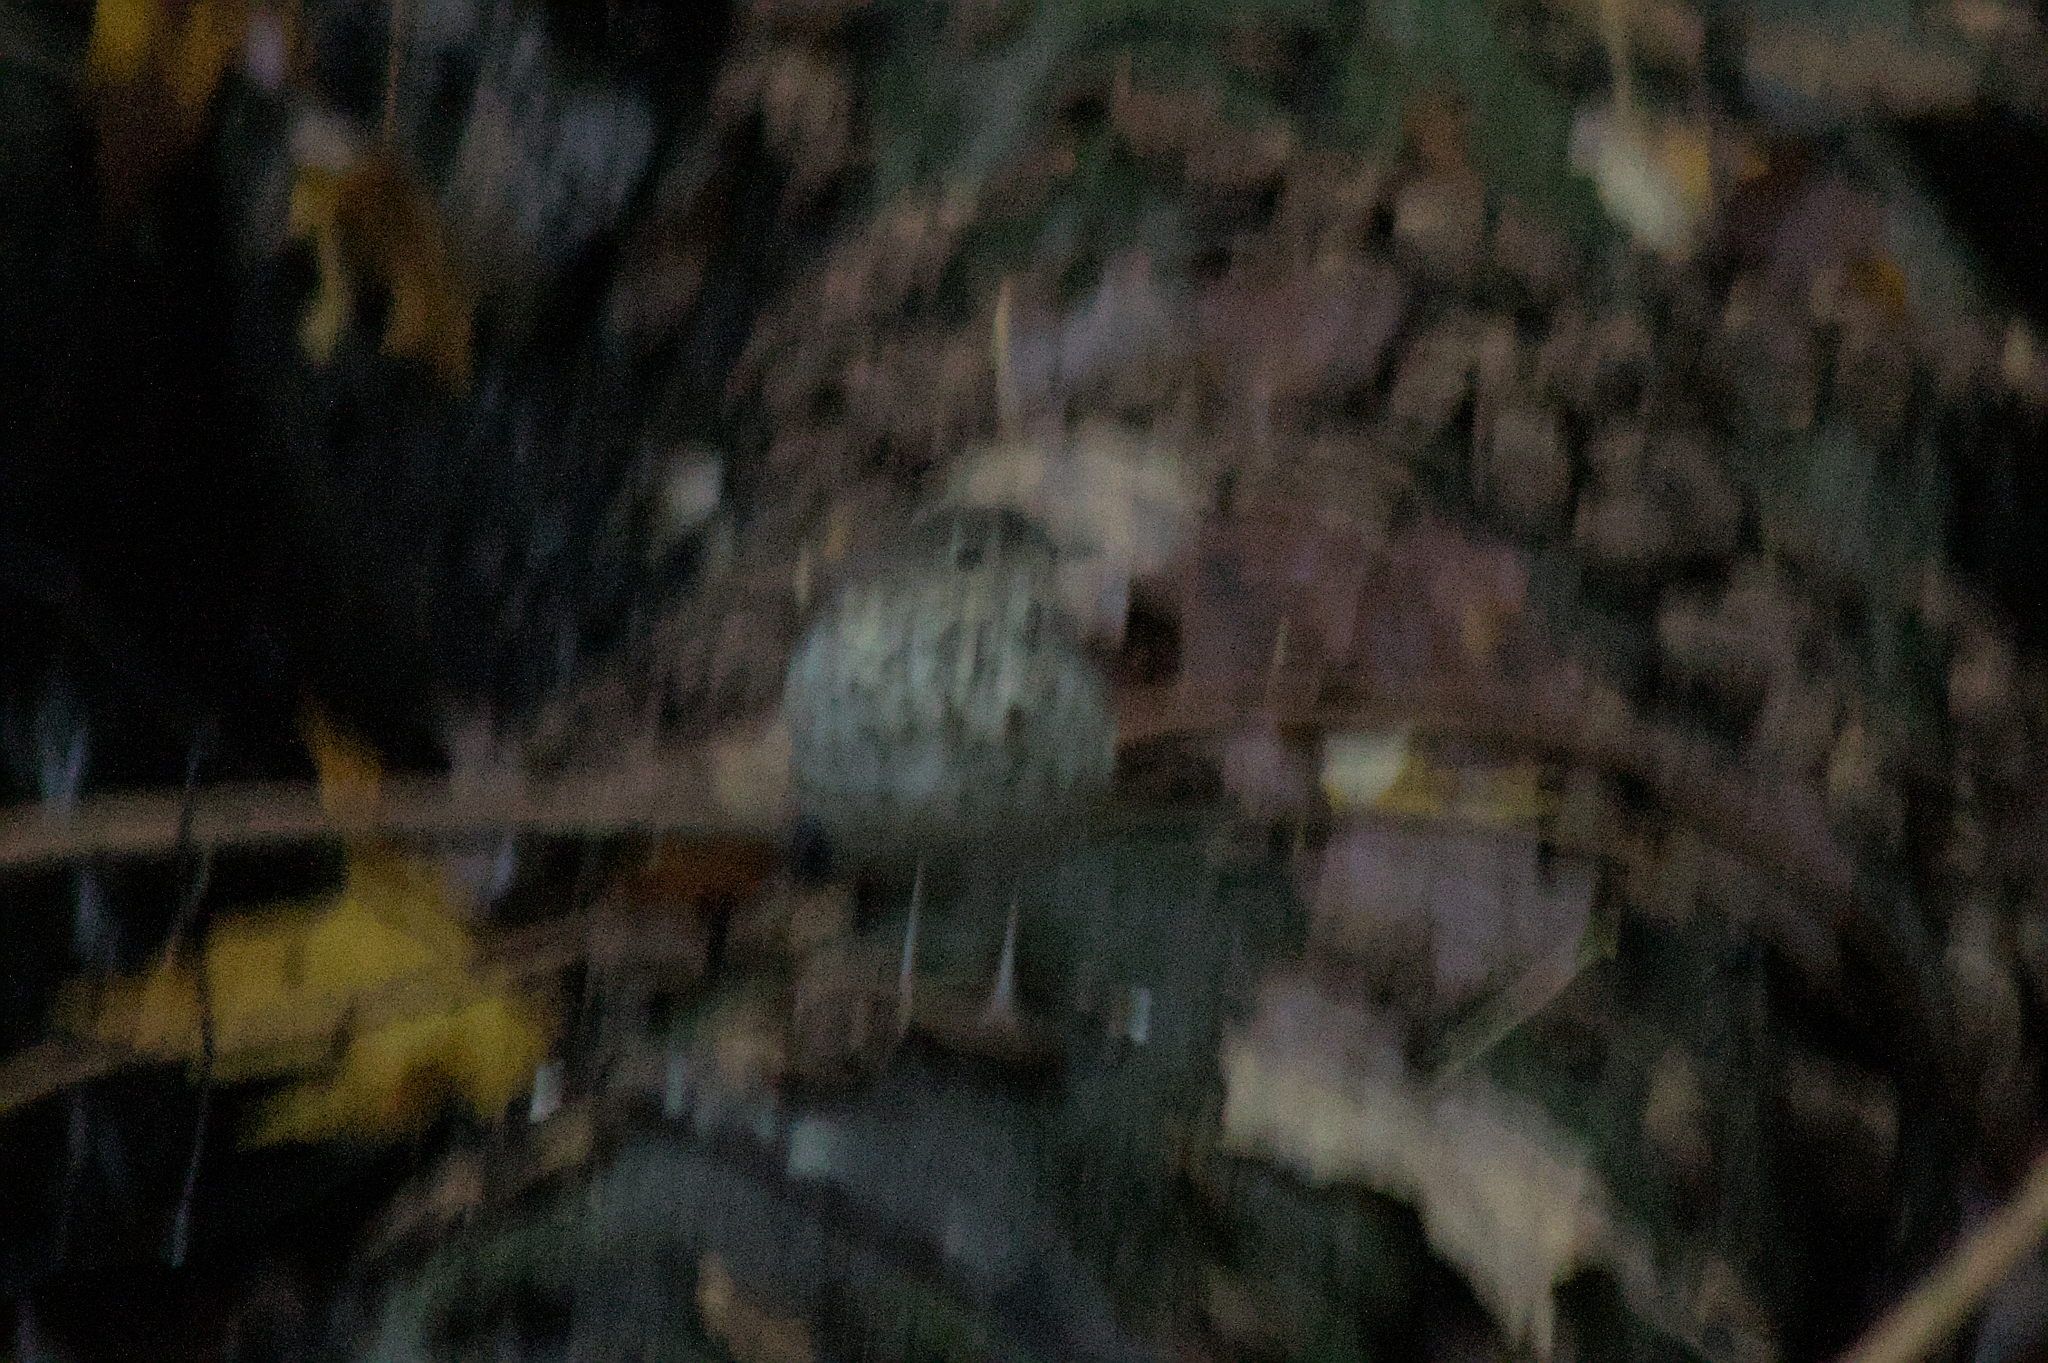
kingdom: Animalia
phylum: Chordata
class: Aves
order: Passeriformes
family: Turdidae
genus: Catharus
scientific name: Catharus guttatus
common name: Hermit thrush
